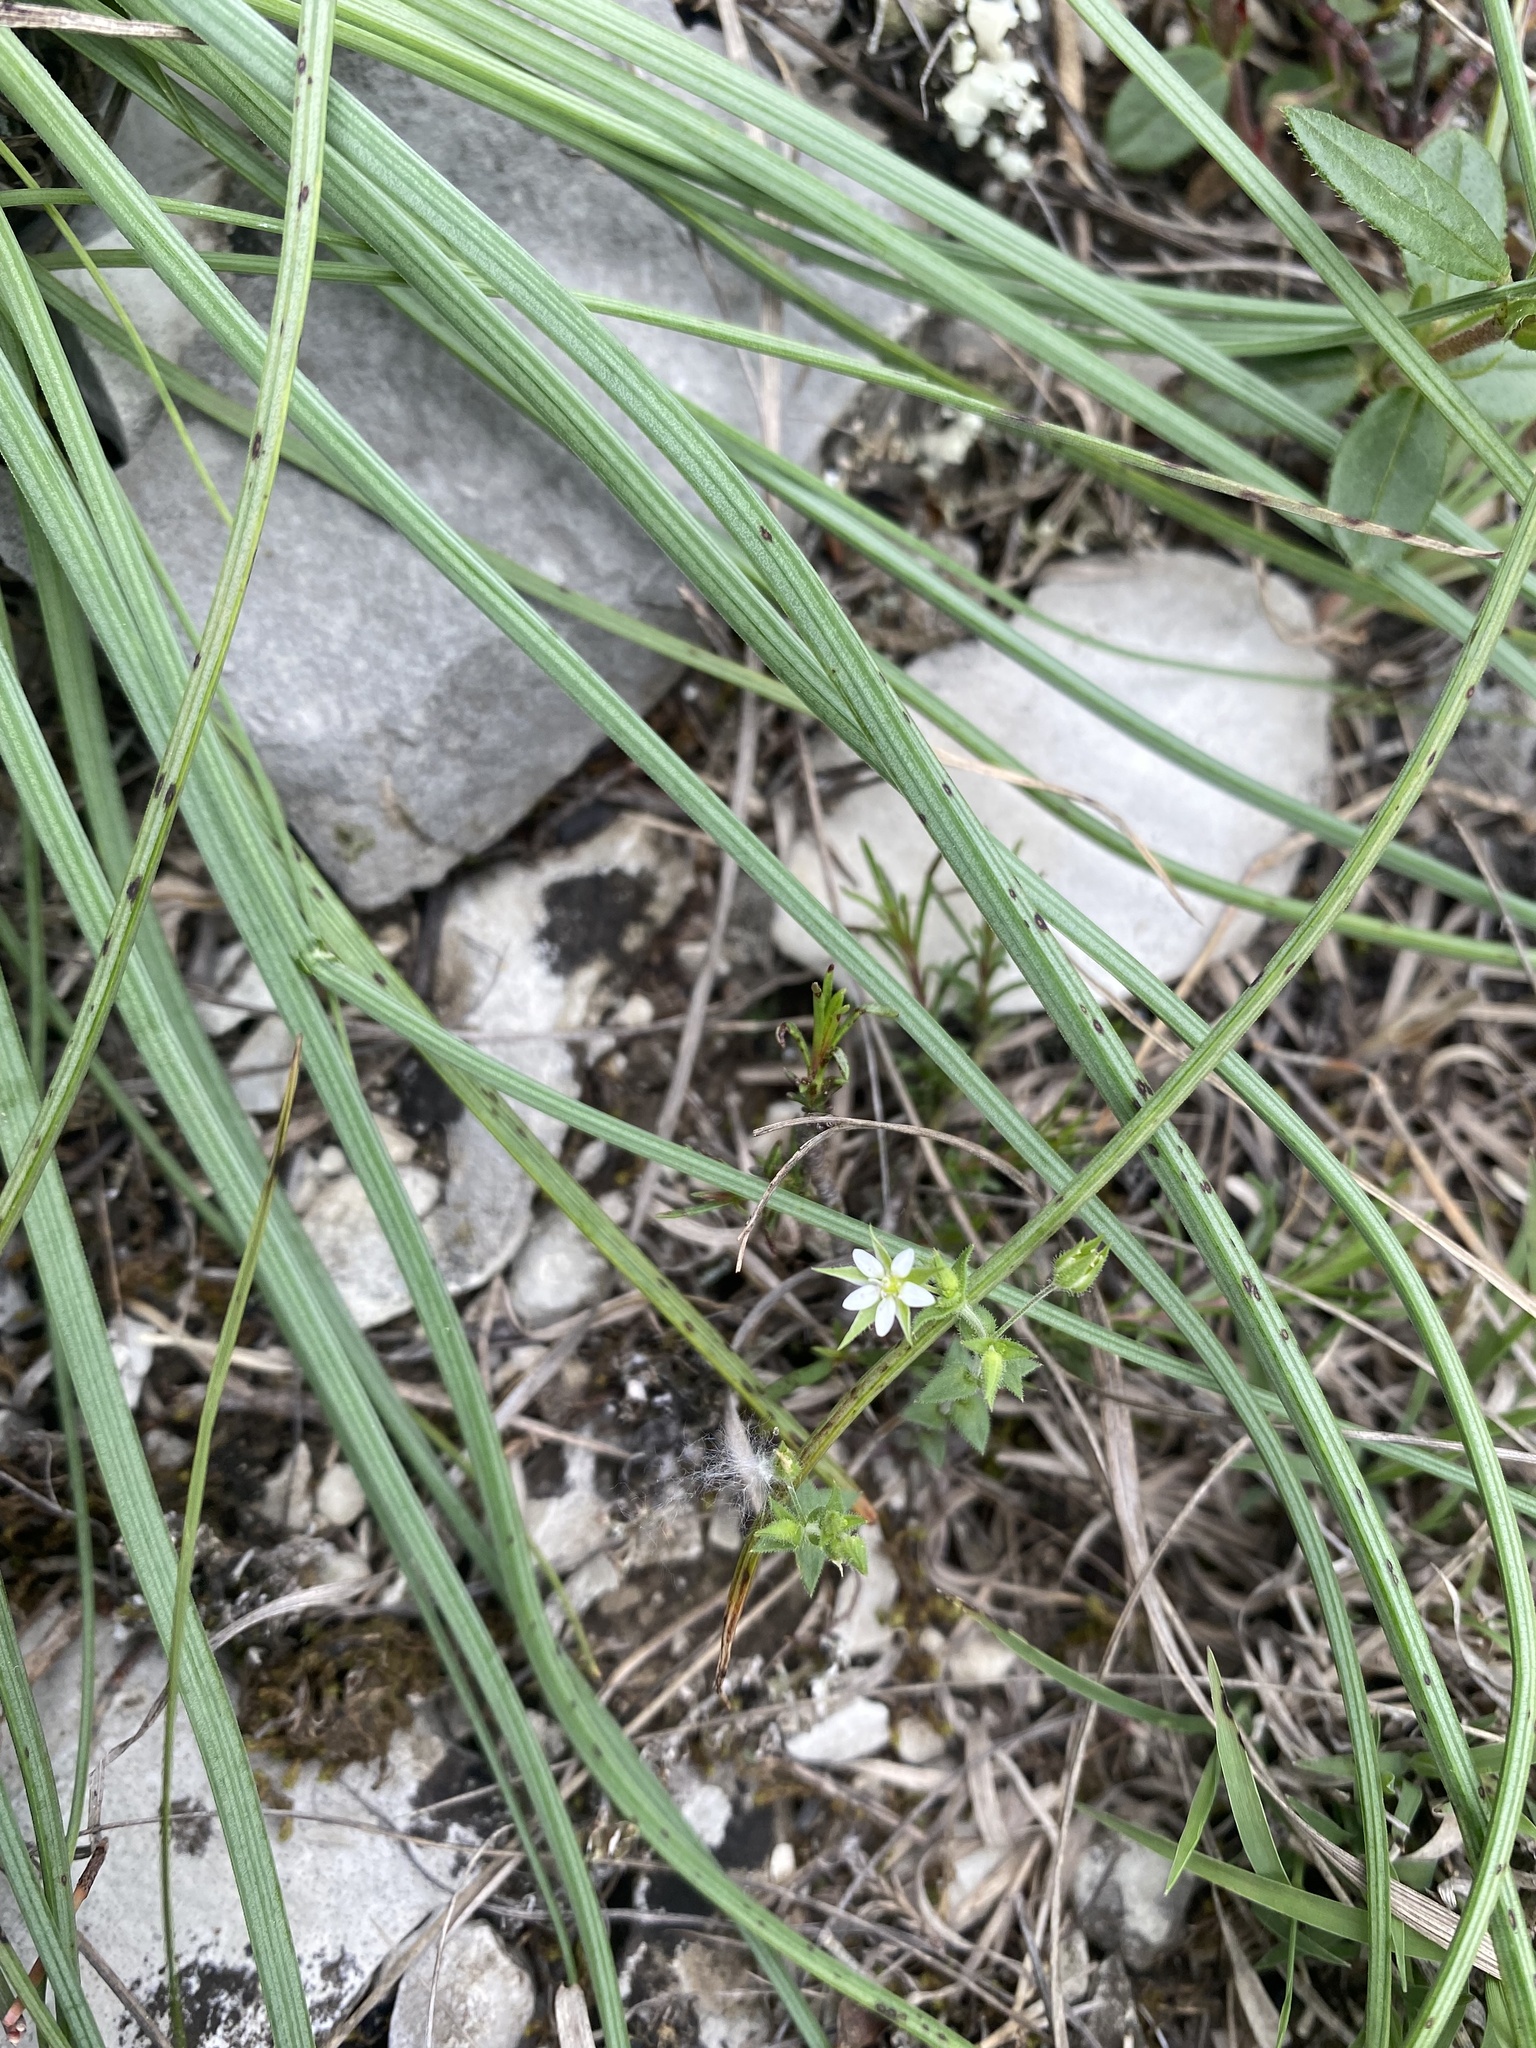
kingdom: Plantae
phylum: Tracheophyta
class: Magnoliopsida
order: Caryophyllales
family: Caryophyllaceae
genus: Arenaria
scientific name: Arenaria serpyllifolia
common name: Thyme-leaved sandwort
